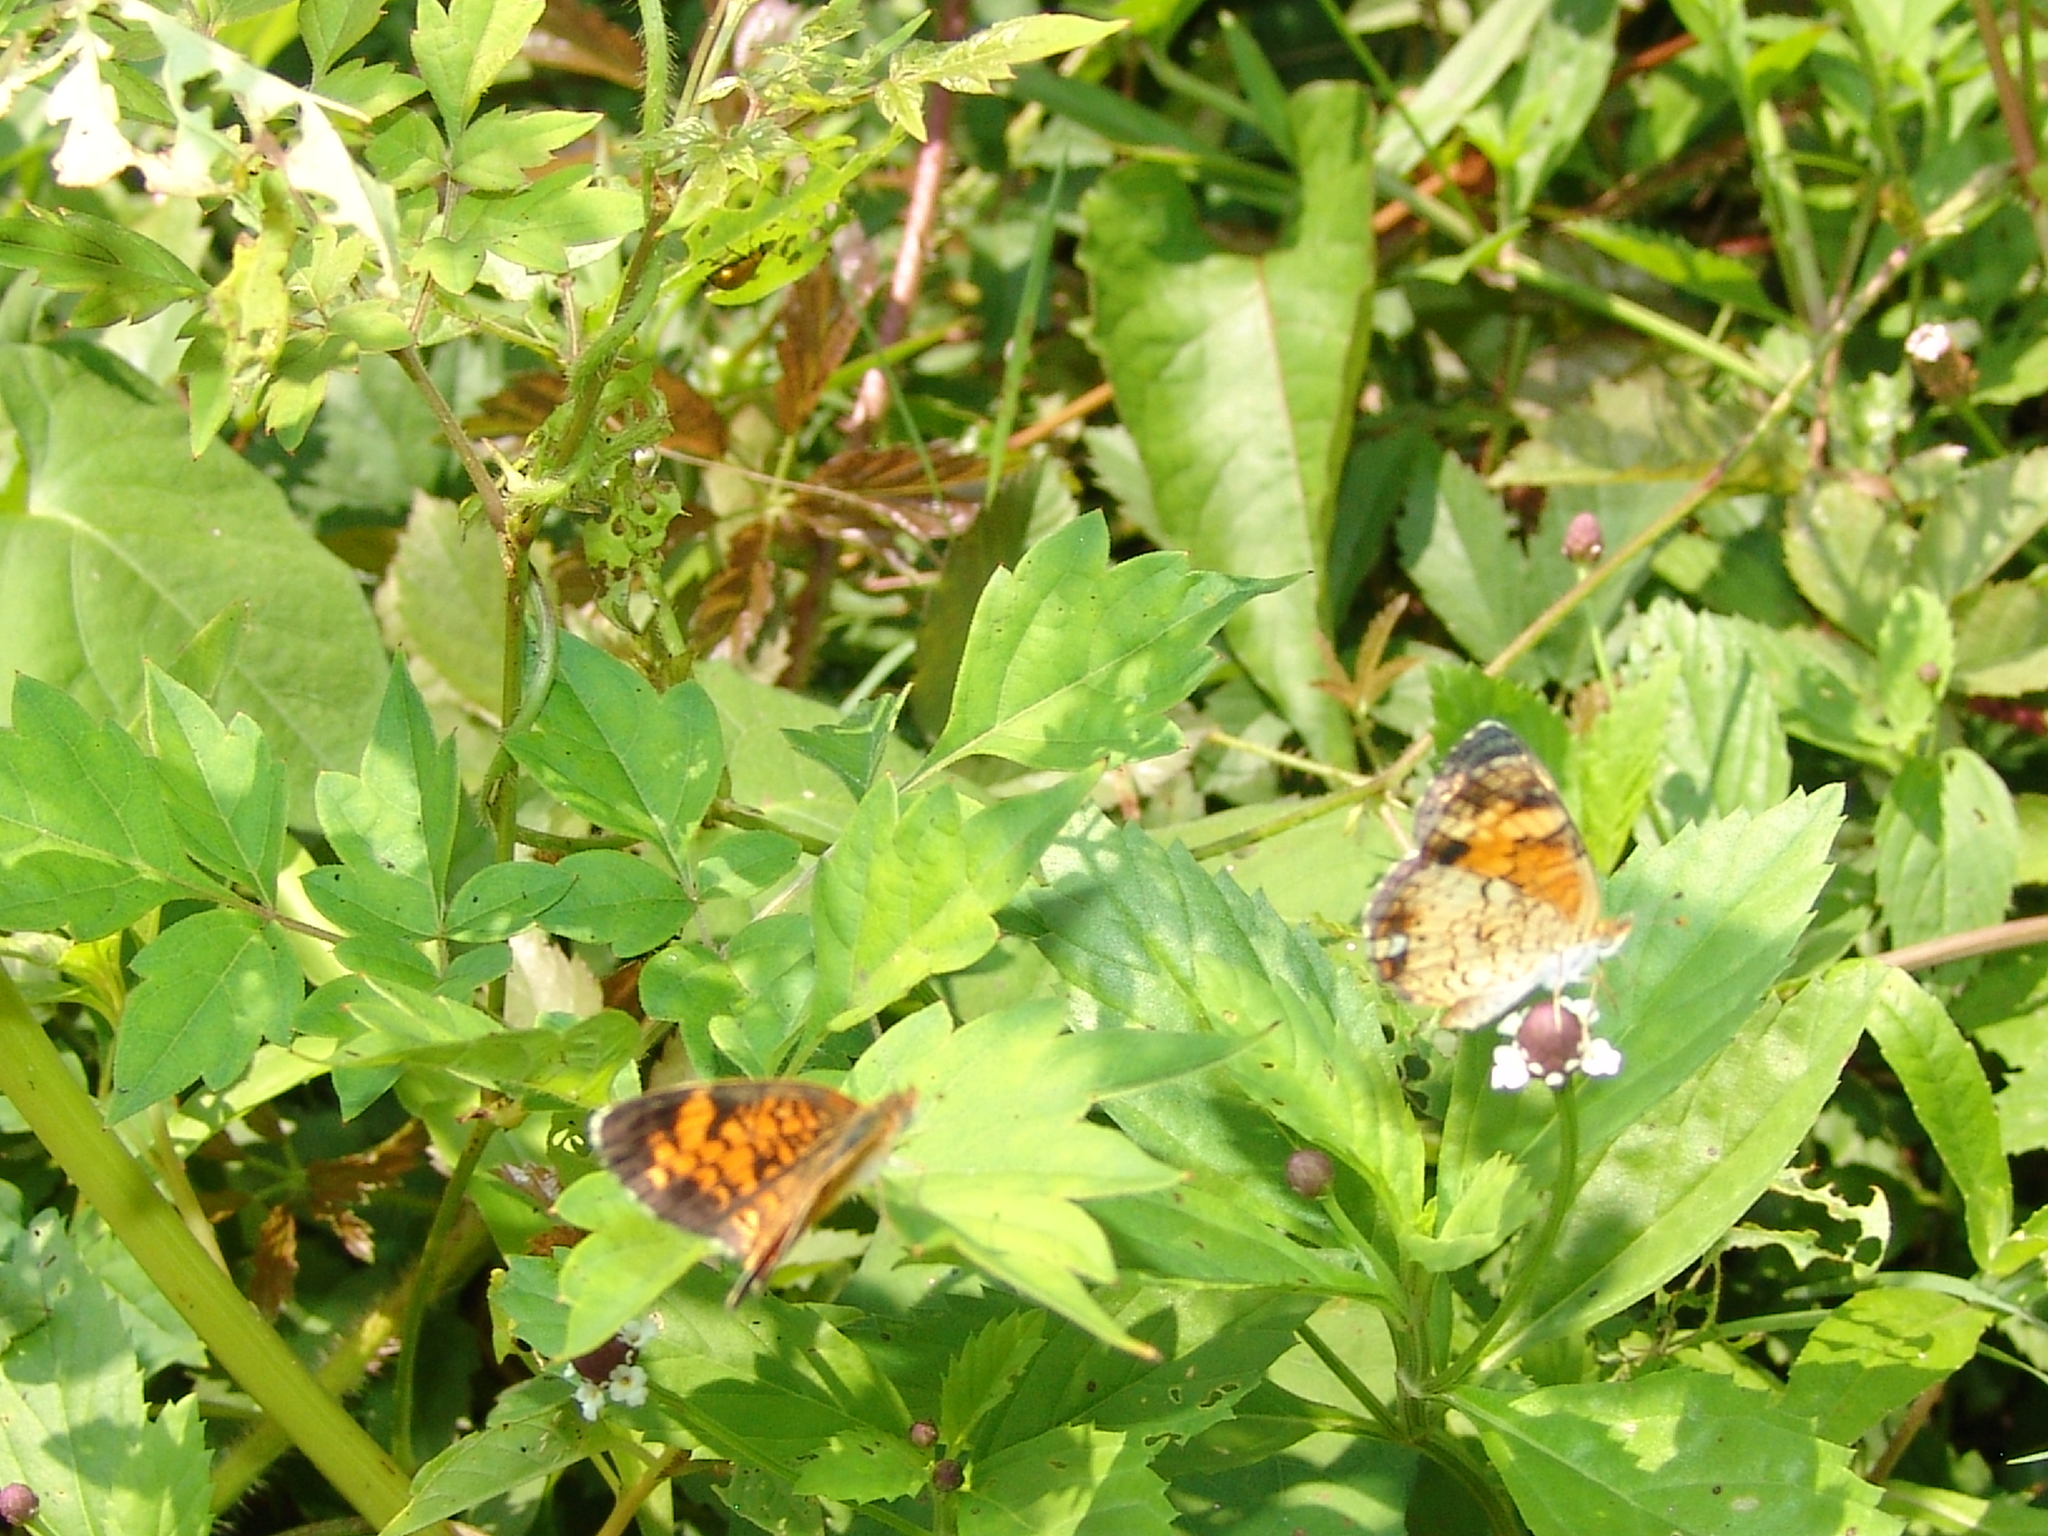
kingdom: Animalia
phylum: Arthropoda
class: Insecta
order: Lepidoptera
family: Nymphalidae
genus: Phyciodes
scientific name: Phyciodes tharos
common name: Pearl crescent
